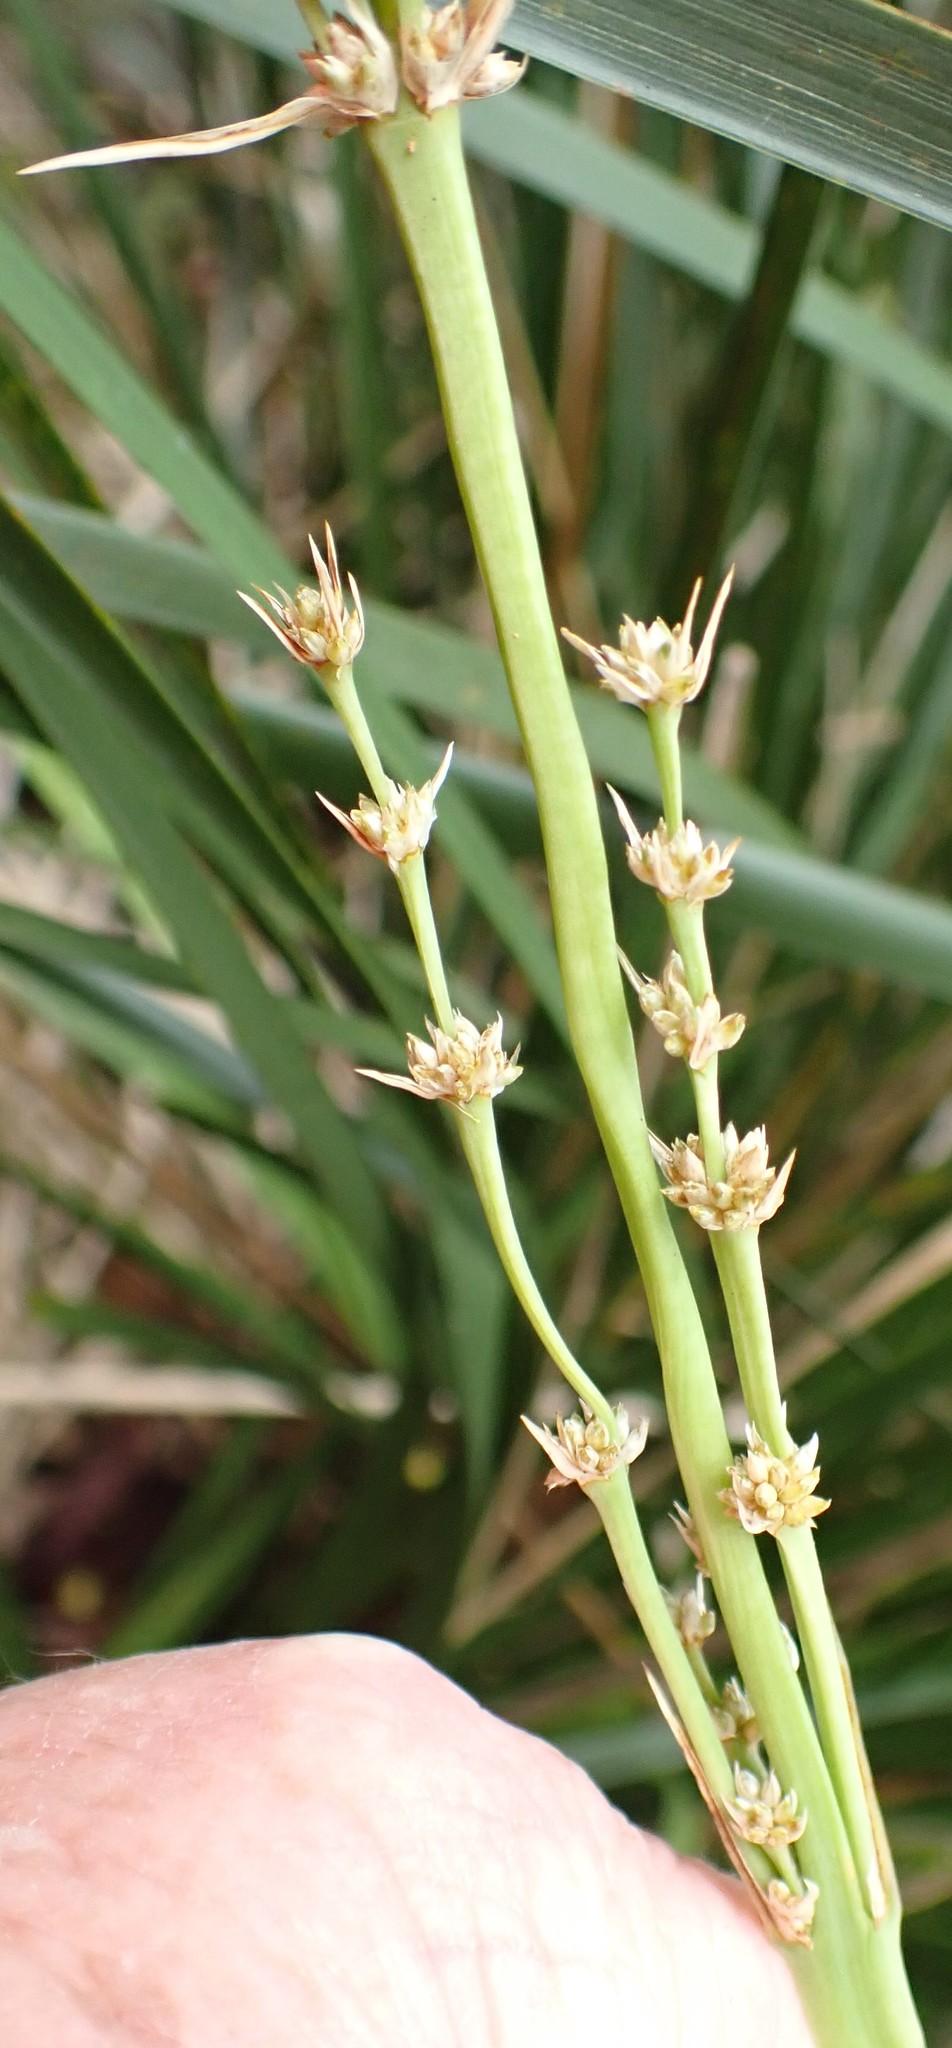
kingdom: Plantae
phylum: Tracheophyta
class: Liliopsida
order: Asparagales
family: Asparagaceae
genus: Lomandra
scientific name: Lomandra longifolia
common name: Longleaf mat-rush
